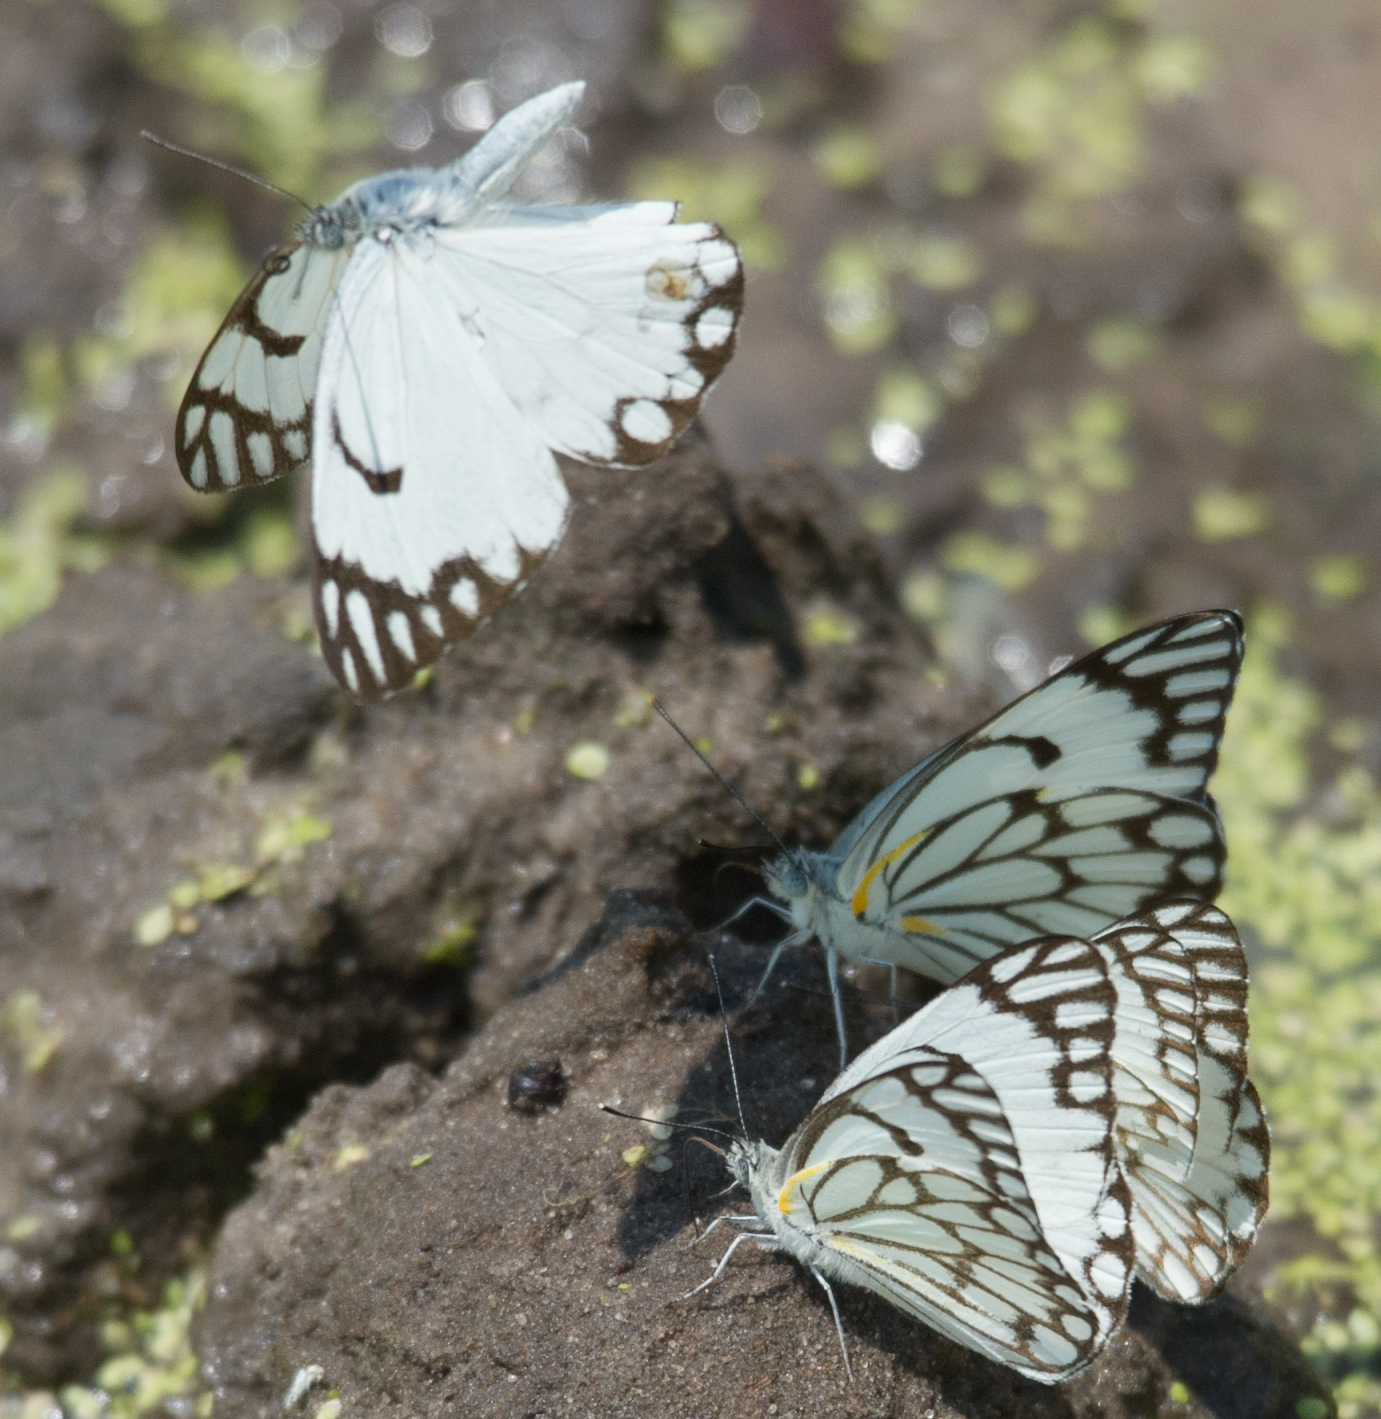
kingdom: Animalia
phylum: Arthropoda
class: Insecta
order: Lepidoptera
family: Pieridae
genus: Belenois
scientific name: Belenois aurota
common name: Brown-veined white
